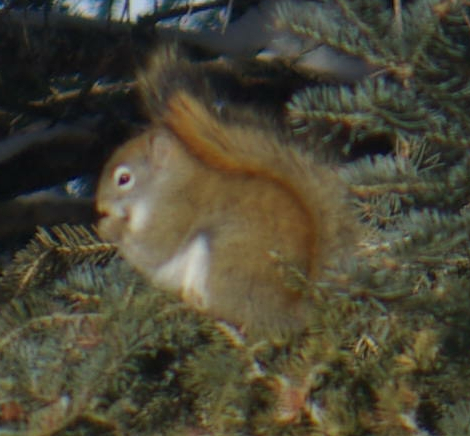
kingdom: Animalia
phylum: Chordata
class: Mammalia
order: Rodentia
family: Sciuridae
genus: Tamiasciurus
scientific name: Tamiasciurus hudsonicus
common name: Red squirrel
